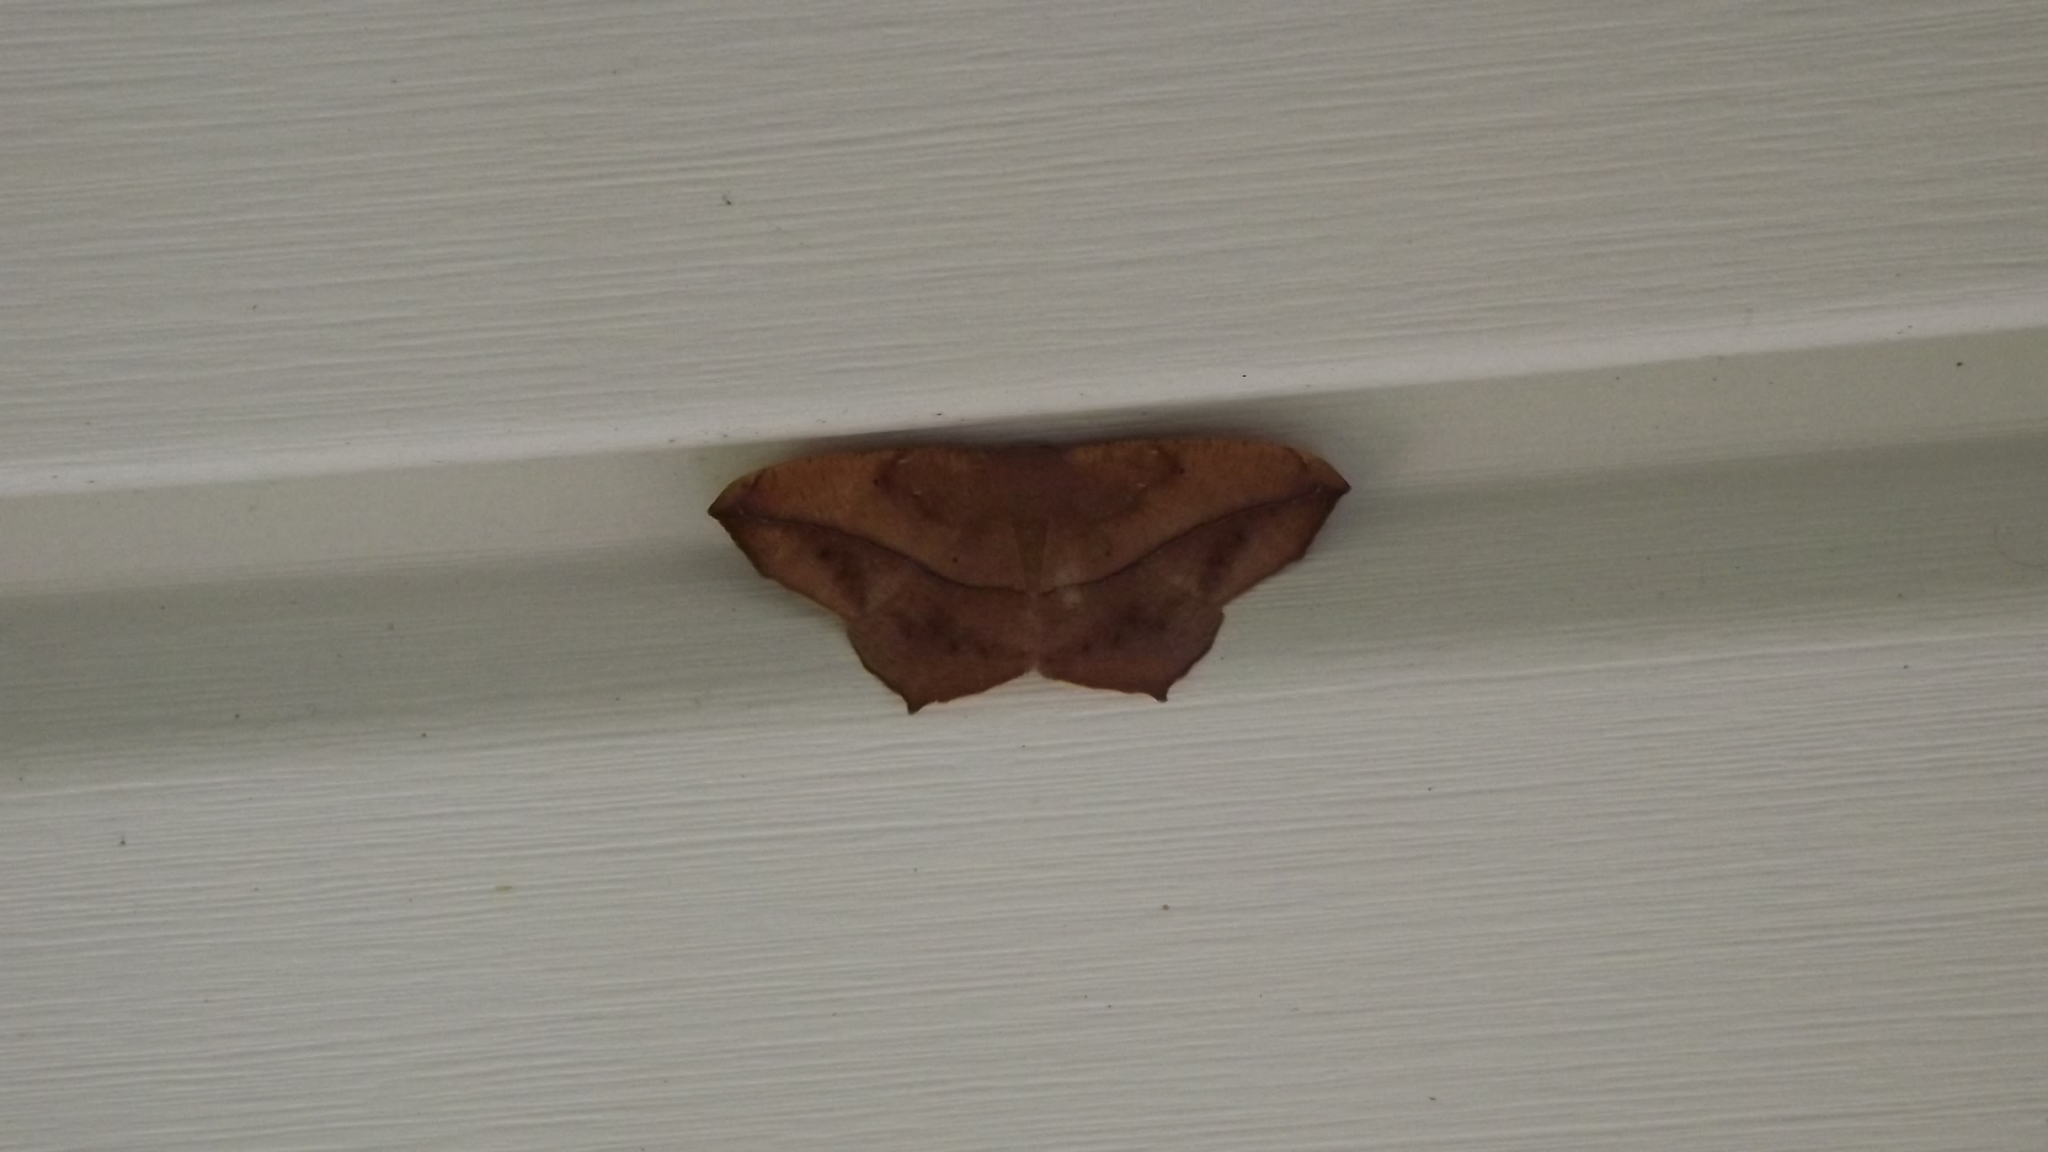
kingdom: Animalia
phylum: Arthropoda
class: Insecta
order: Lepidoptera
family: Geometridae
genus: Prochoerodes
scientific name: Prochoerodes lineola
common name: Large maple spanworm
